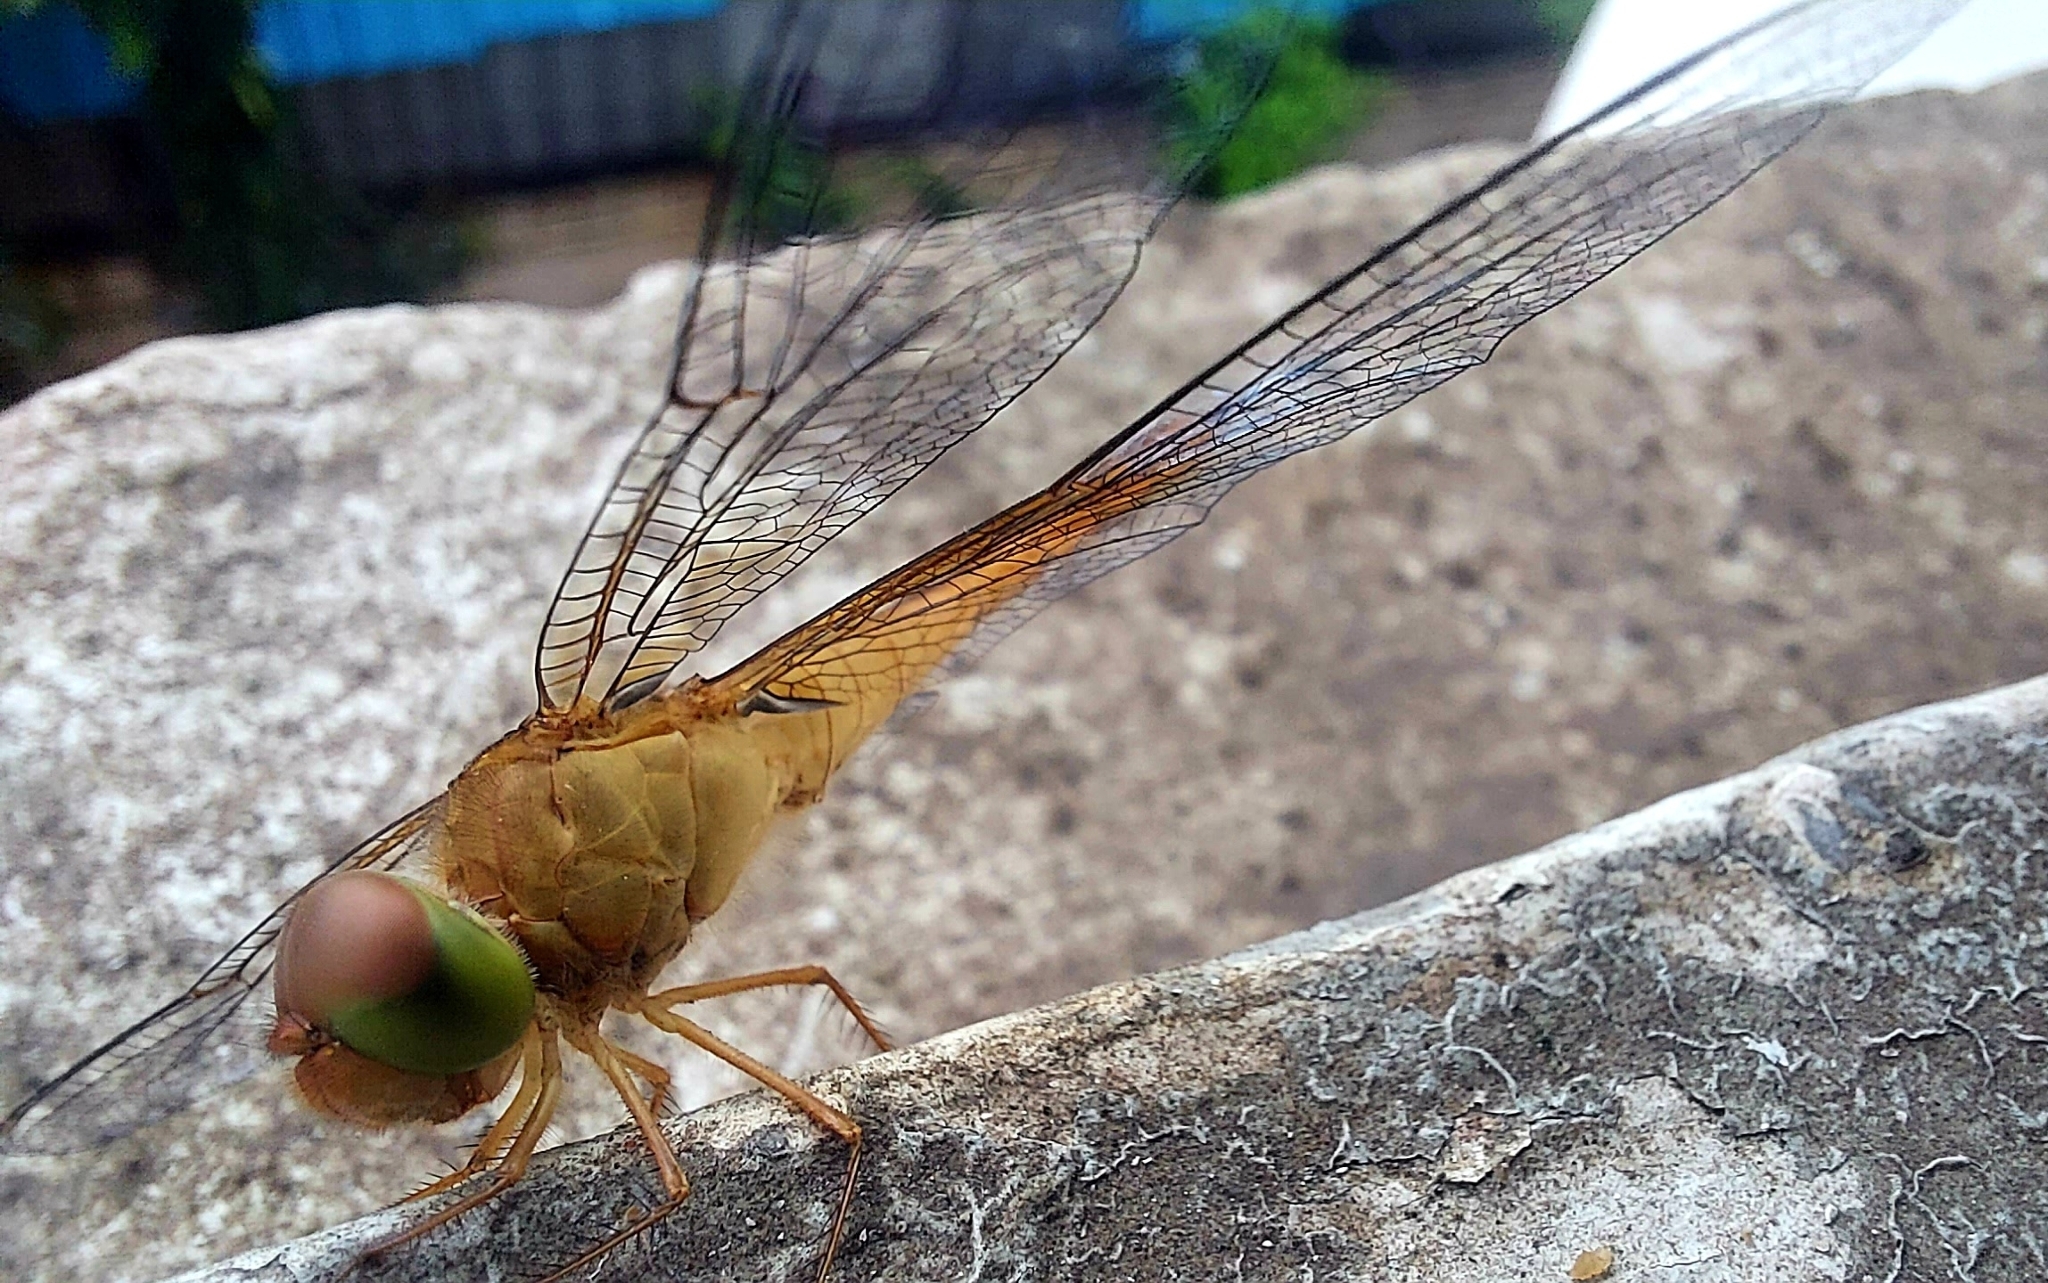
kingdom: Animalia
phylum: Arthropoda
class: Insecta
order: Odonata
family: Libellulidae
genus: Tholymis
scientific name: Tholymis tillarga
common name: Coral-tailed cloud wing
